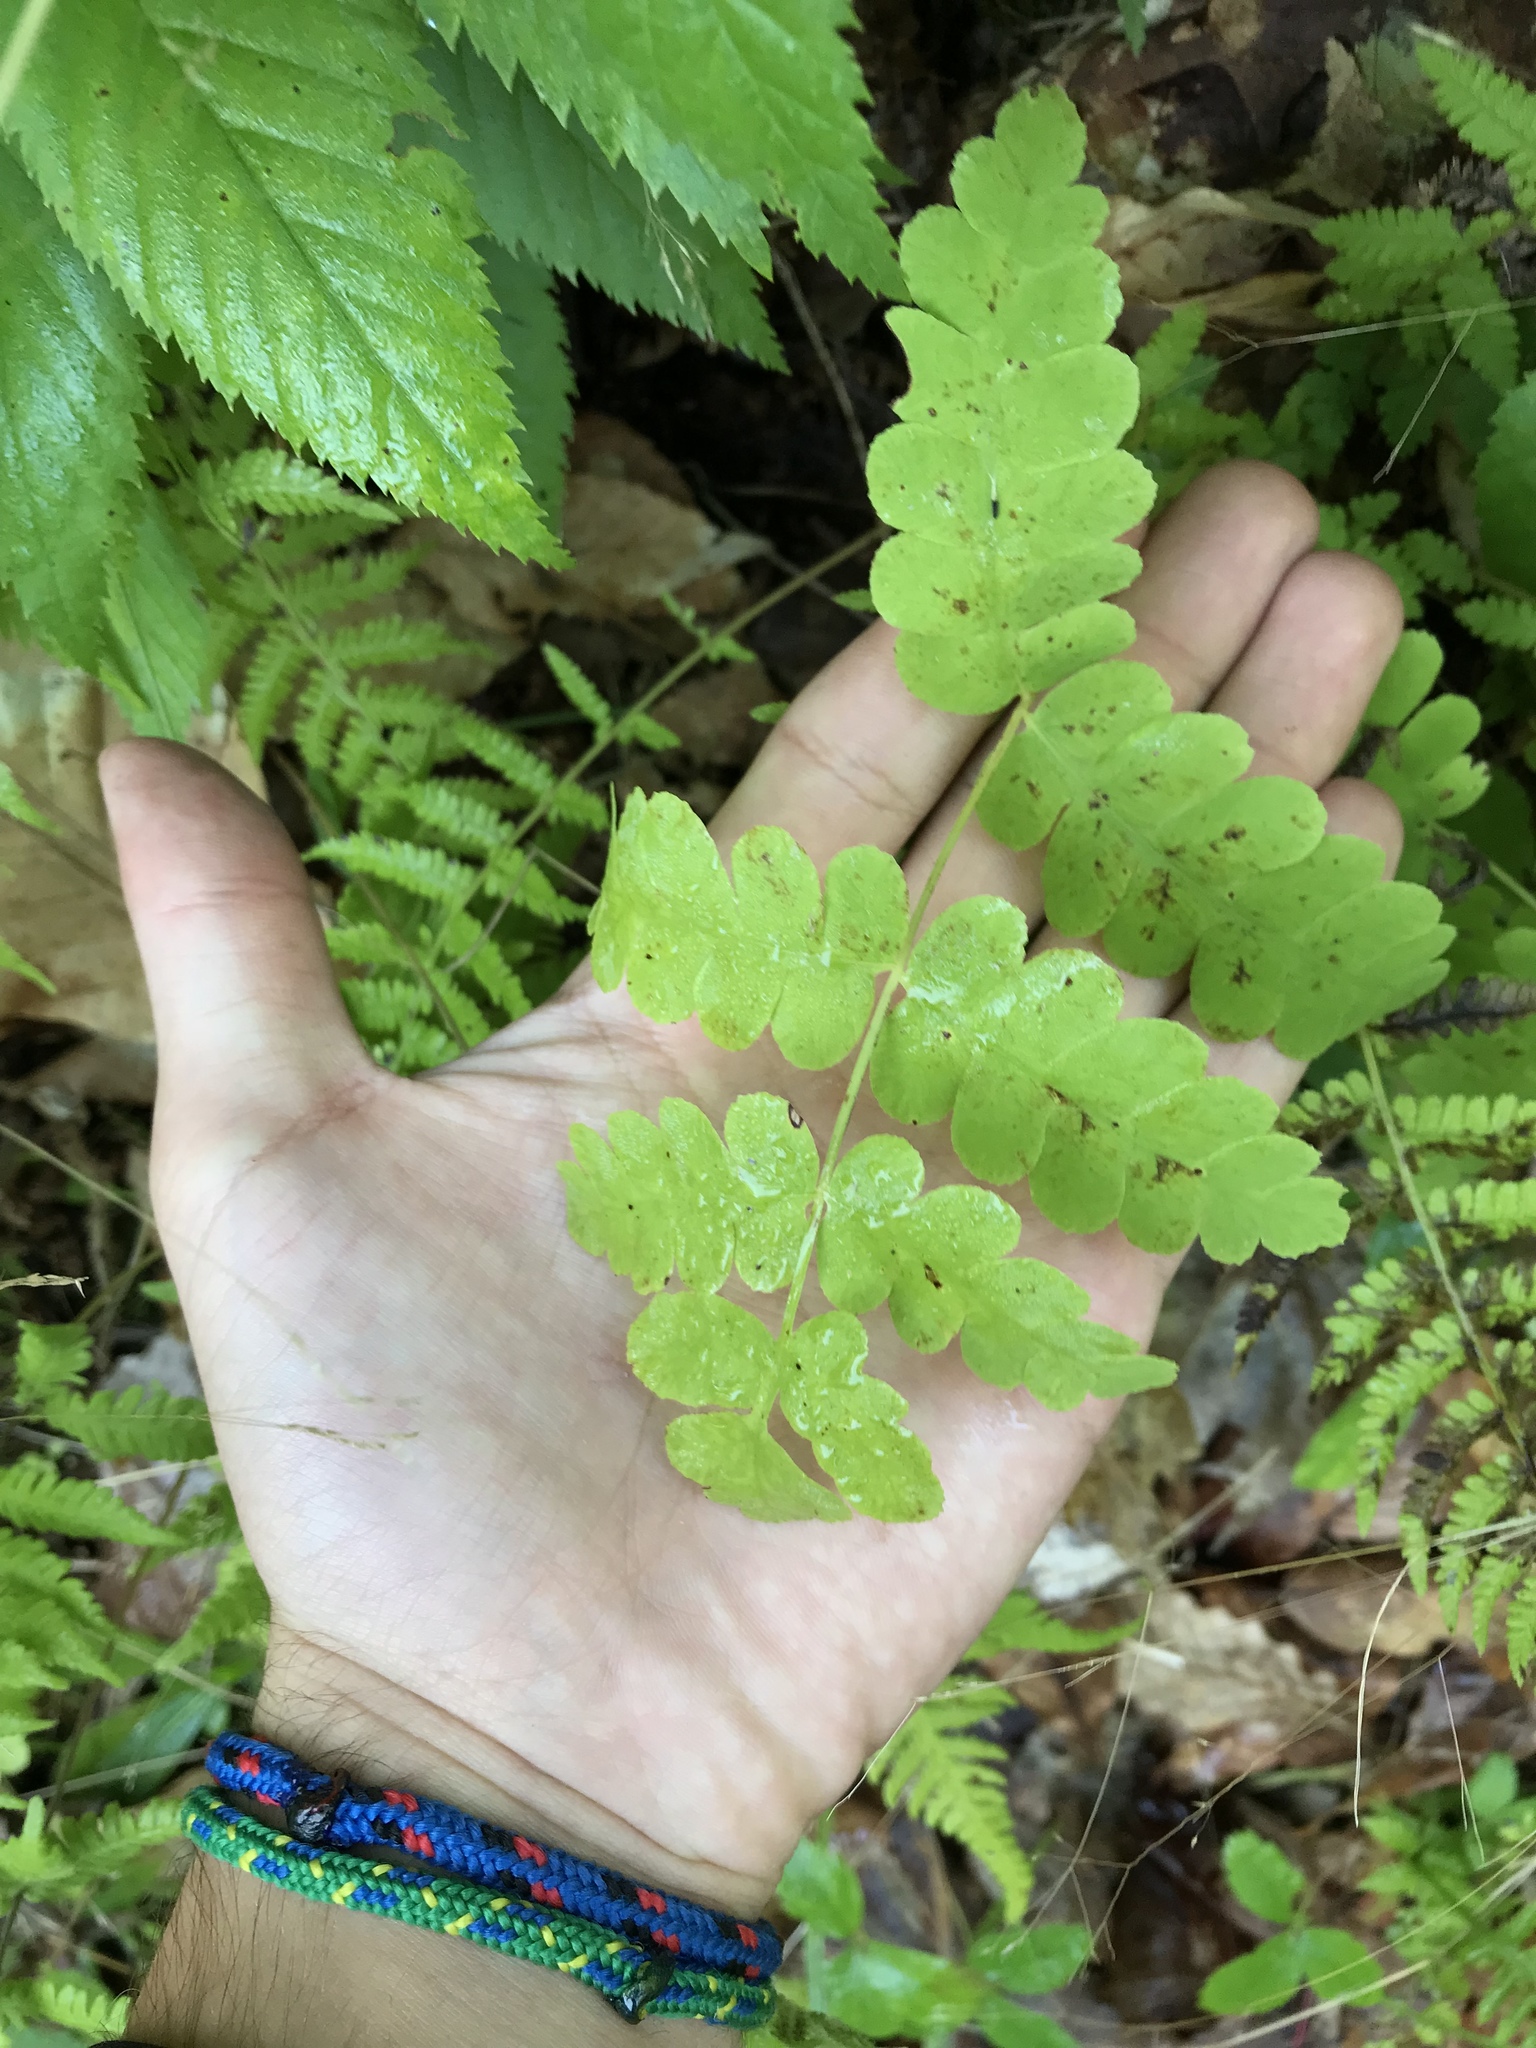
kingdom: Plantae
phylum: Tracheophyta
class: Polypodiopsida
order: Osmundales
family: Osmundaceae
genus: Claytosmunda
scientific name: Claytosmunda claytoniana
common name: Clayton's fern
